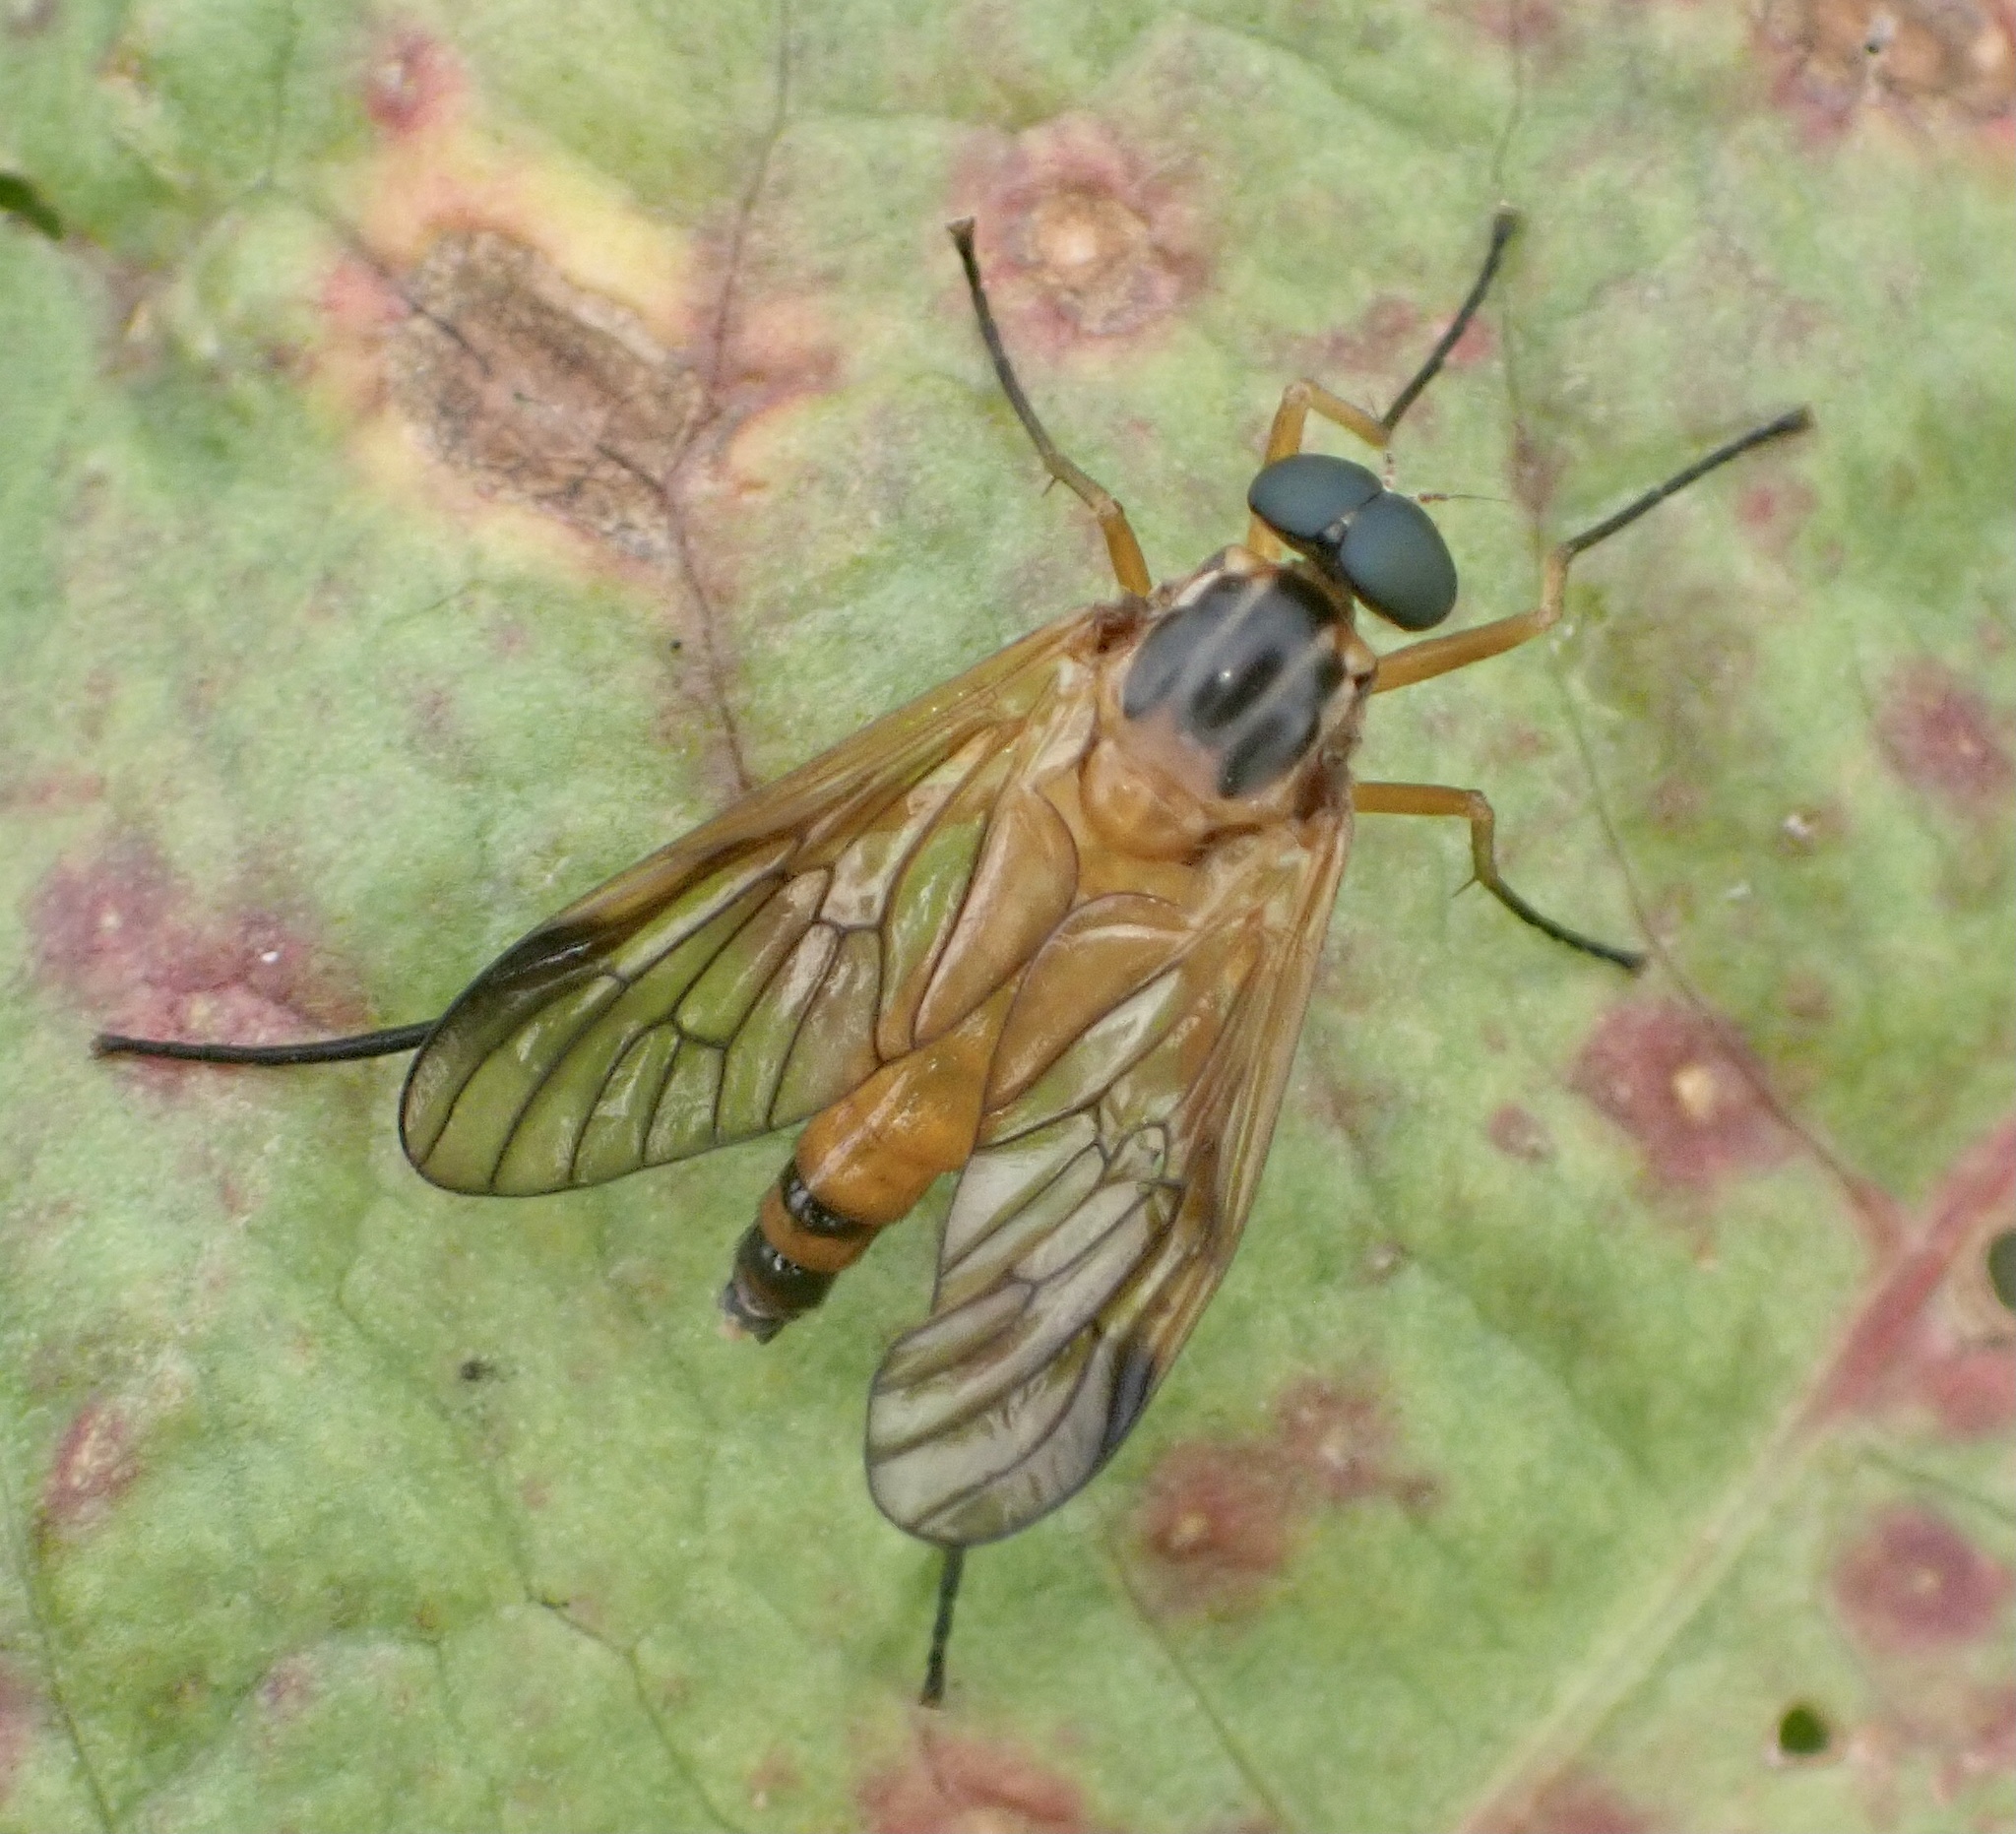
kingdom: Animalia
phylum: Arthropoda
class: Insecta
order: Diptera
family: Rhagionidae
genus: Rhagio
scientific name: Rhagio immaculatus
